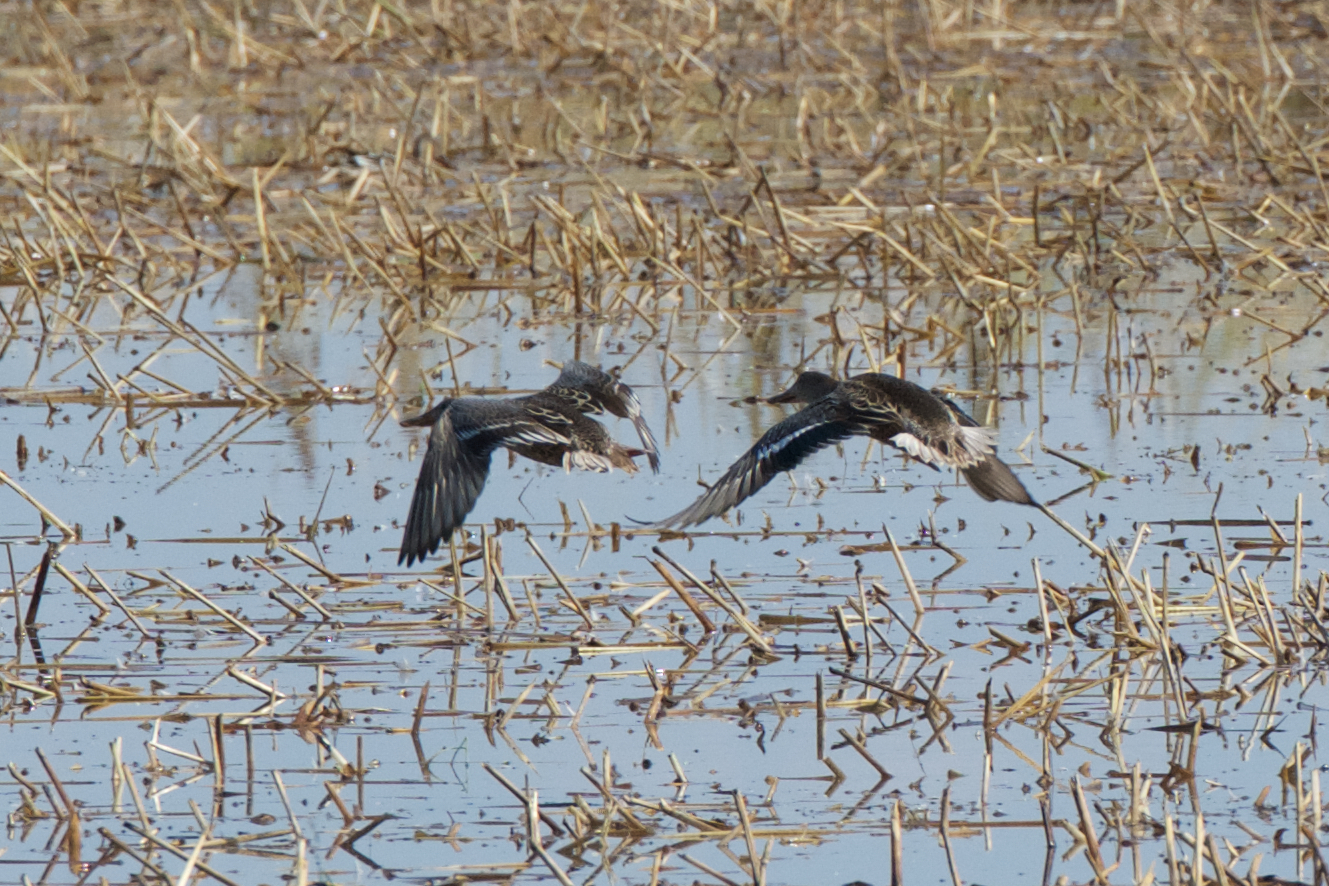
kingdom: Animalia
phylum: Chordata
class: Aves
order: Anseriformes
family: Anatidae
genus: Spatula
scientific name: Spatula clypeata
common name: Northern shoveler
